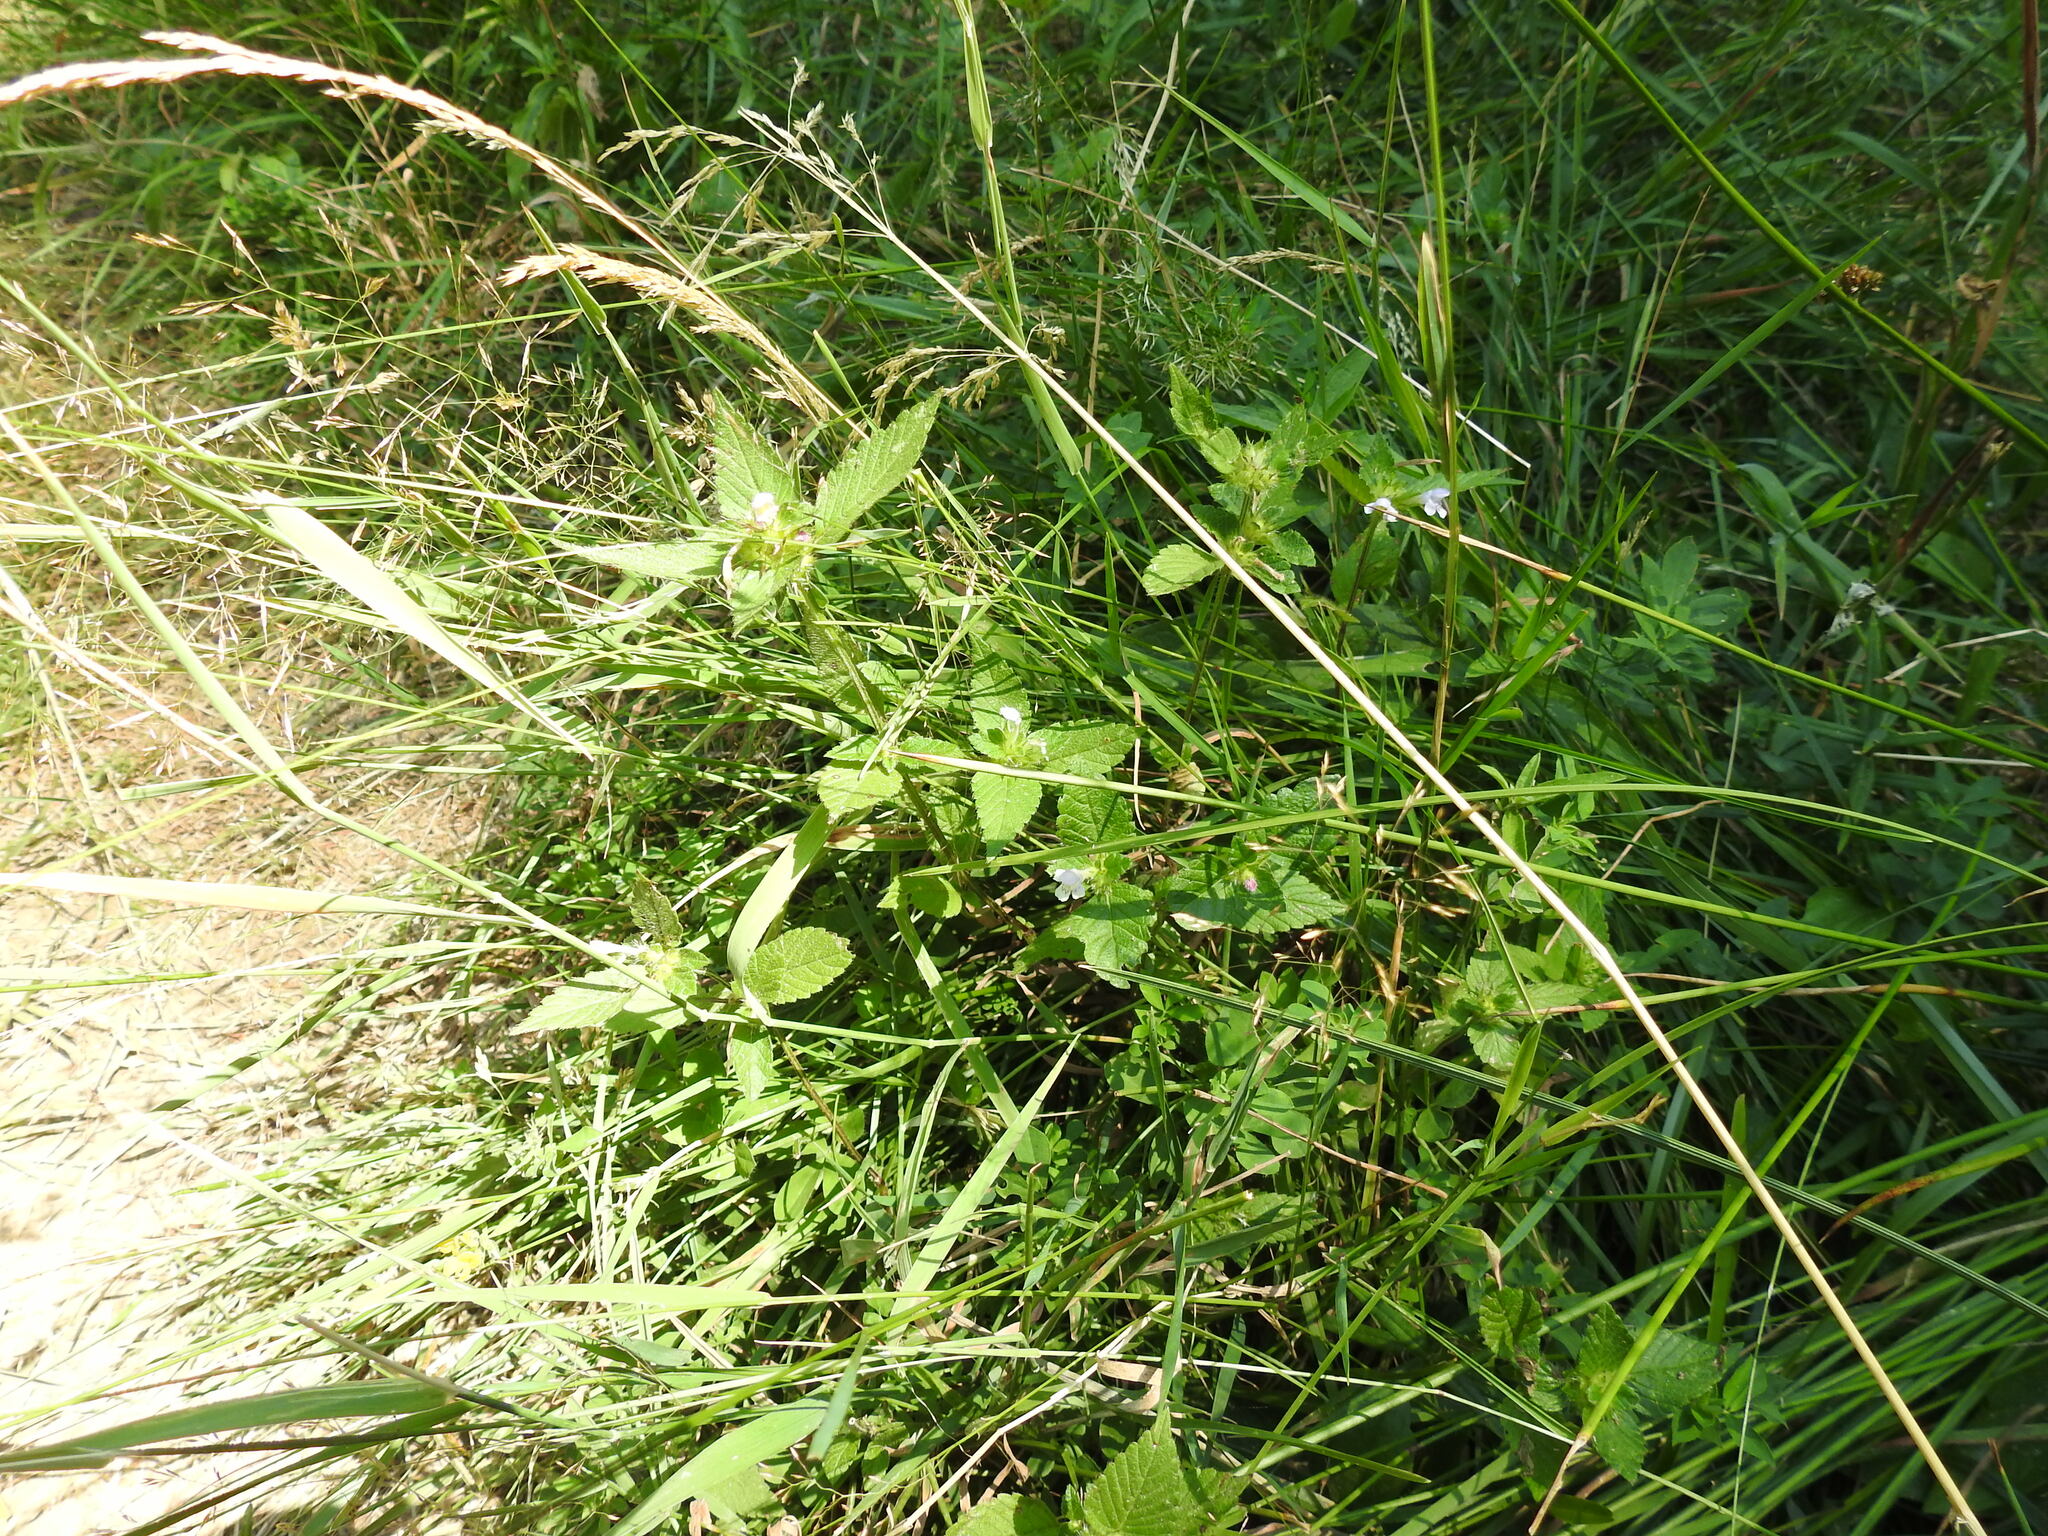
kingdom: Plantae
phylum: Tracheophyta
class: Magnoliopsida
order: Lamiales
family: Lamiaceae
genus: Galeopsis
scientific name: Galeopsis tetrahit
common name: Common hemp-nettle
